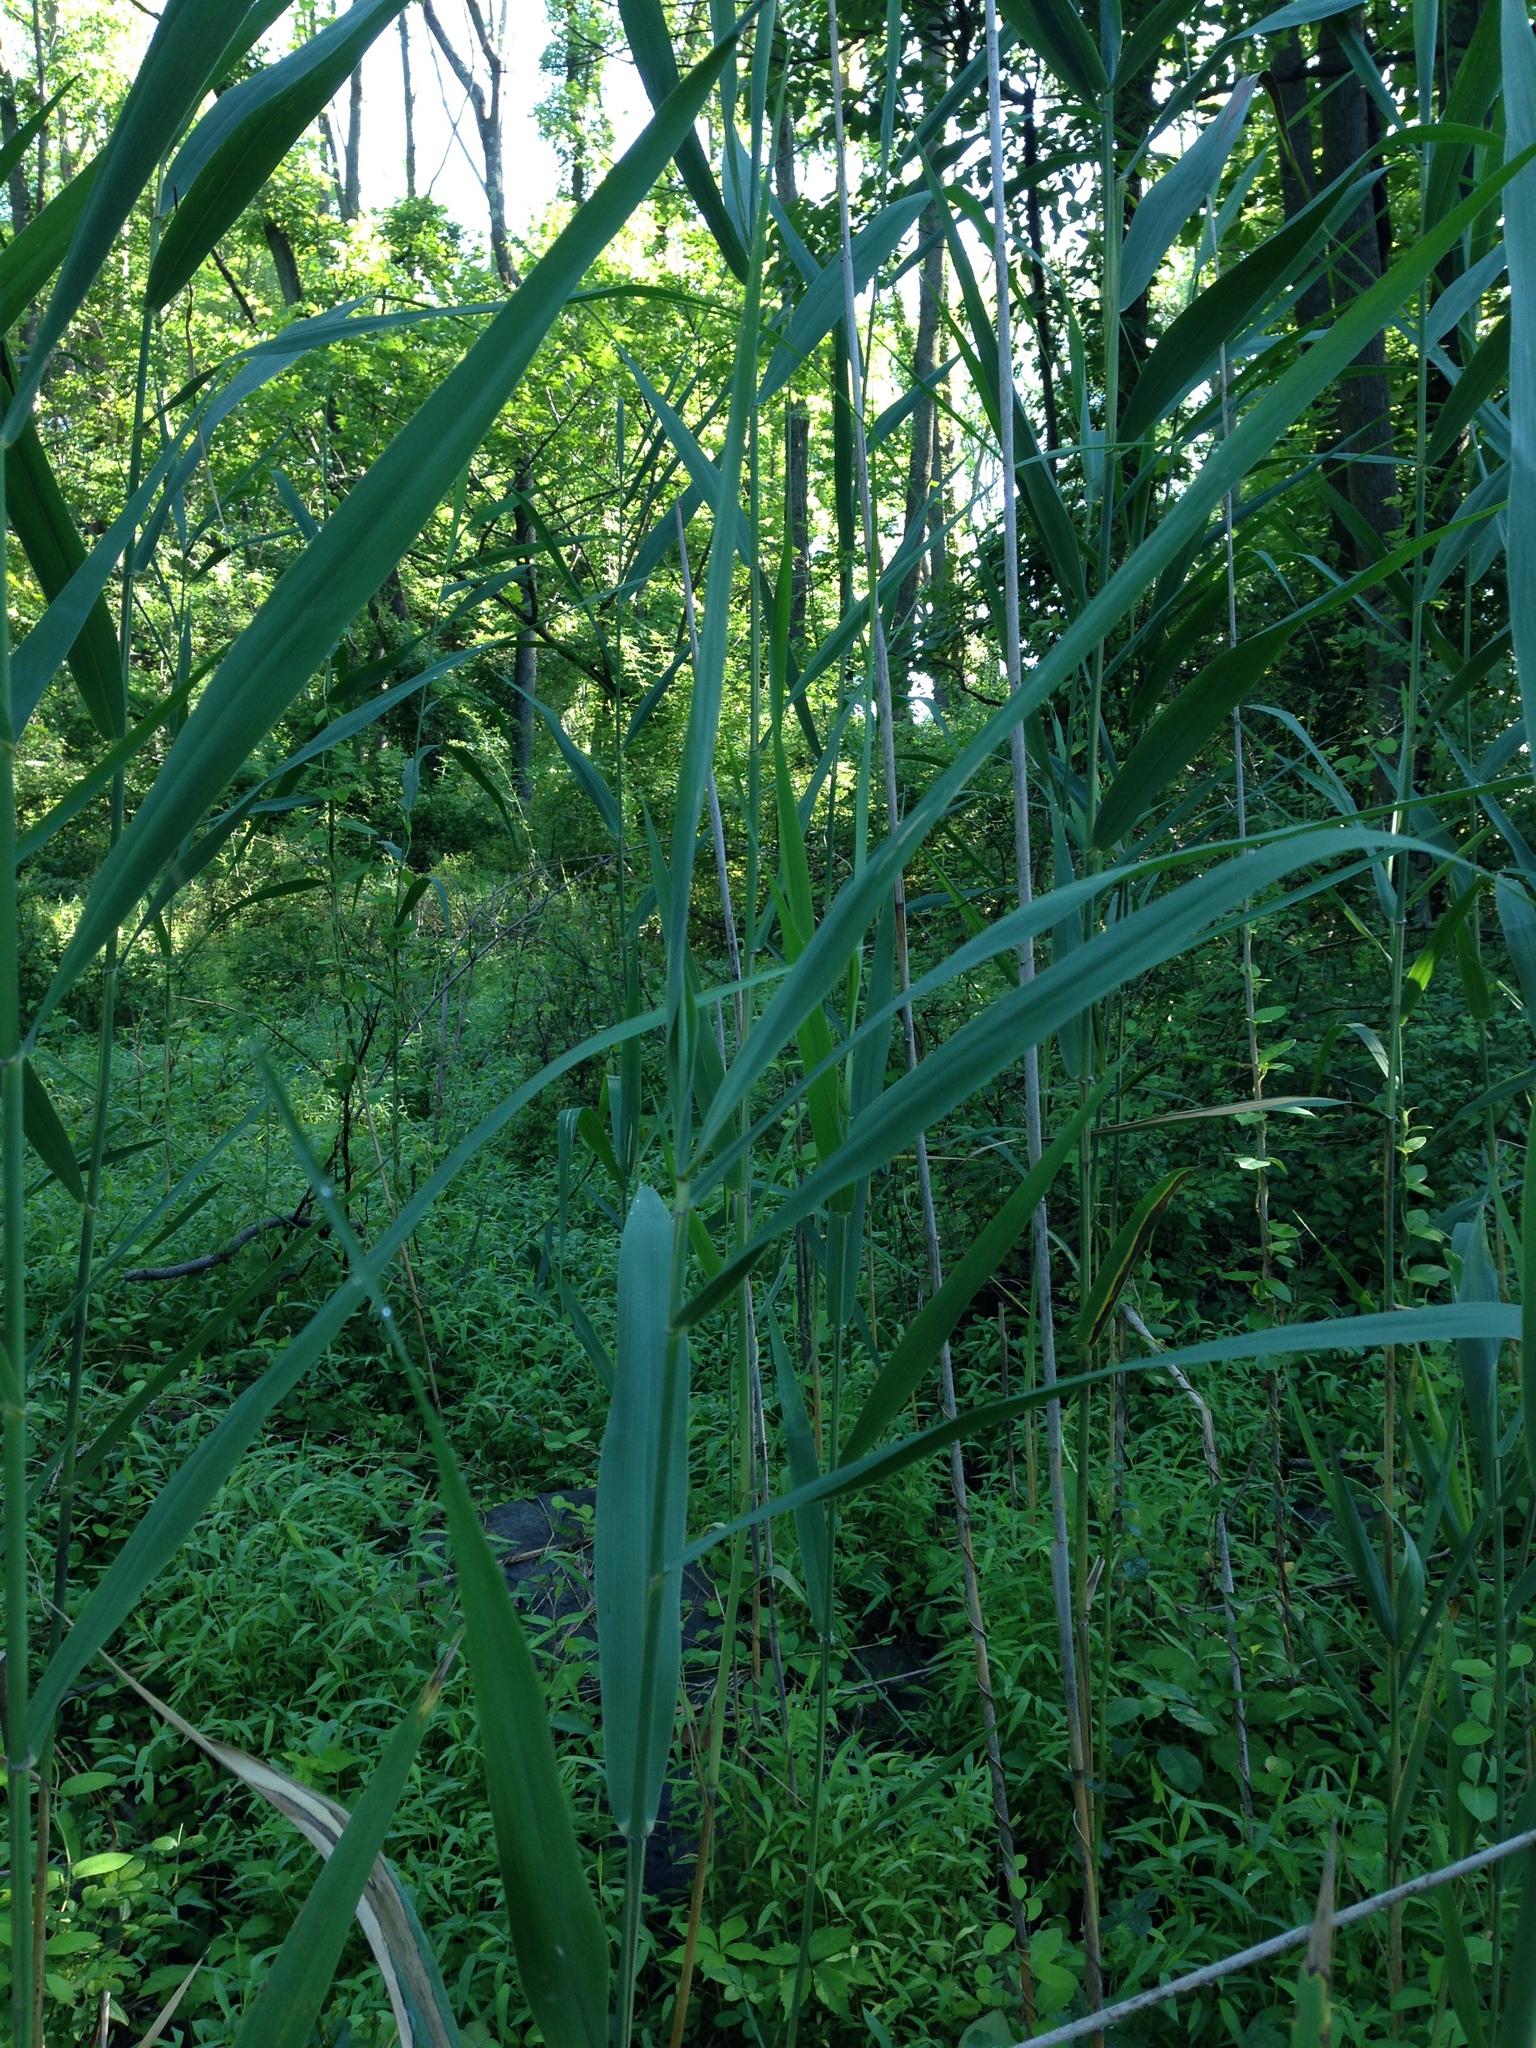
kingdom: Plantae
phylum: Tracheophyta
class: Liliopsida
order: Poales
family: Poaceae
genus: Phragmites
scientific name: Phragmites australis
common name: Common reed
